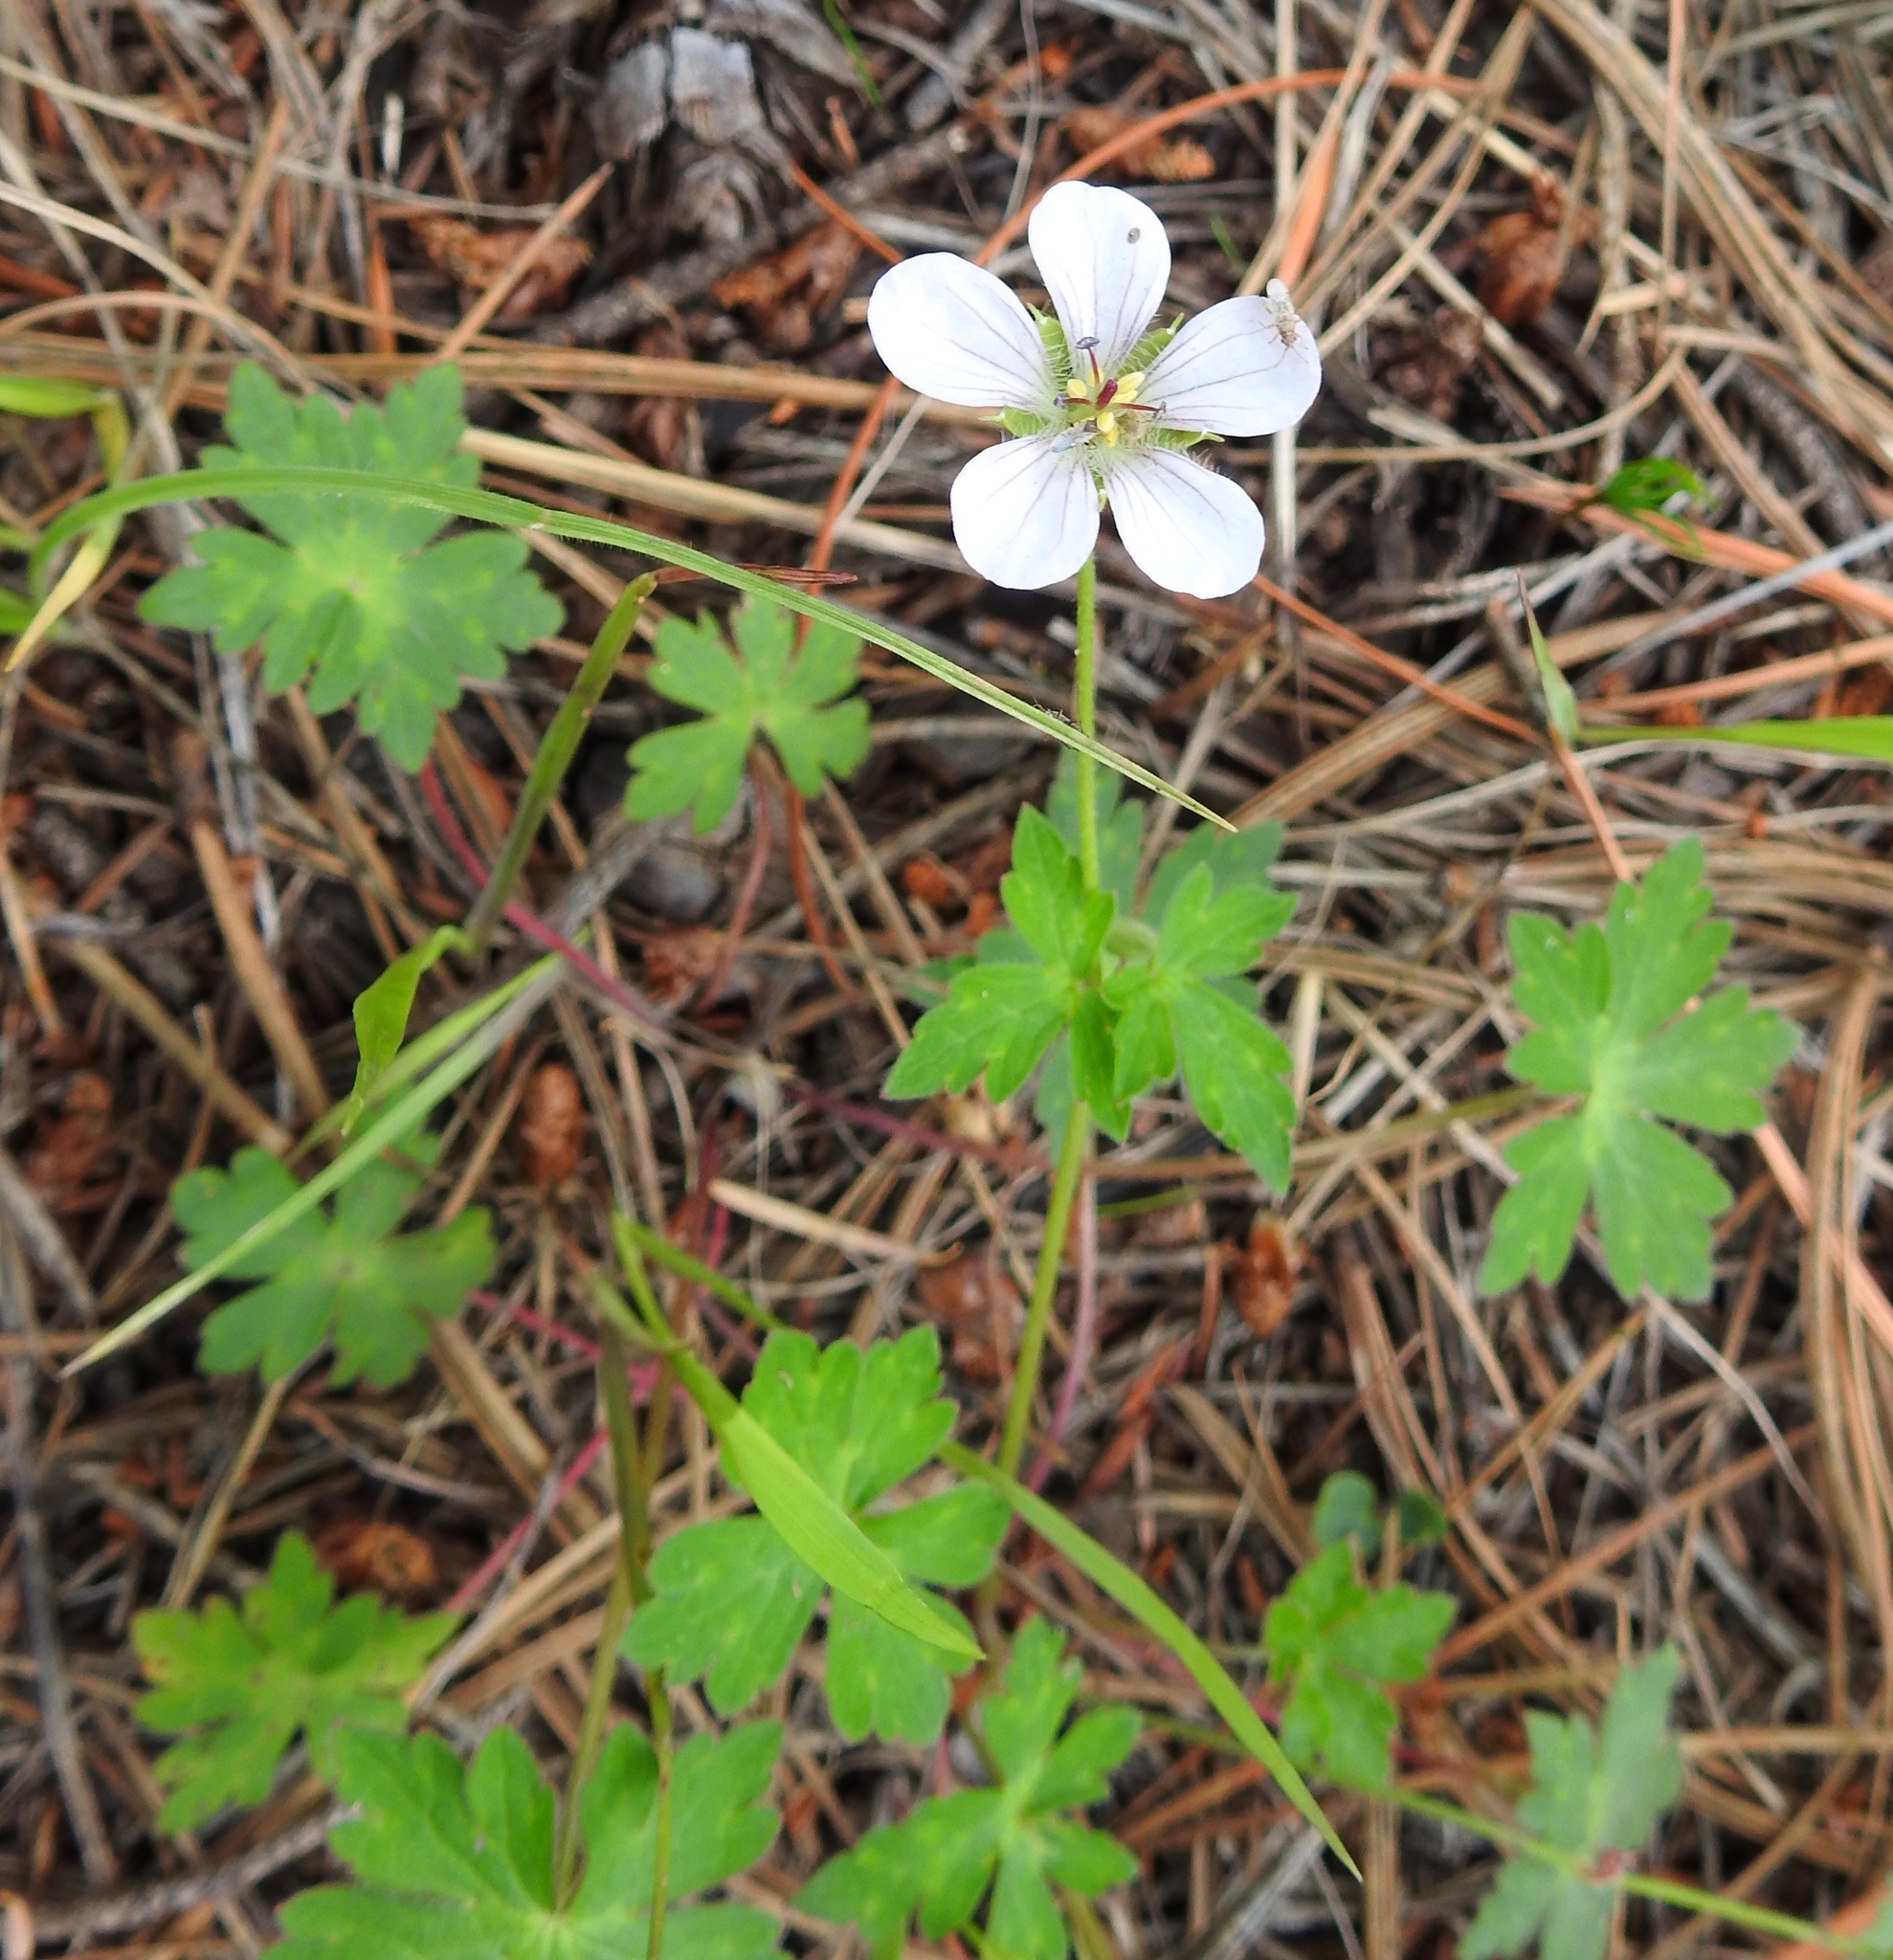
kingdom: Plantae
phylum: Tracheophyta
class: Magnoliopsida
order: Geraniales
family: Geraniaceae
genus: Geranium
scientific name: Geranium richardsonii
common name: Richardson's crane's-bill
